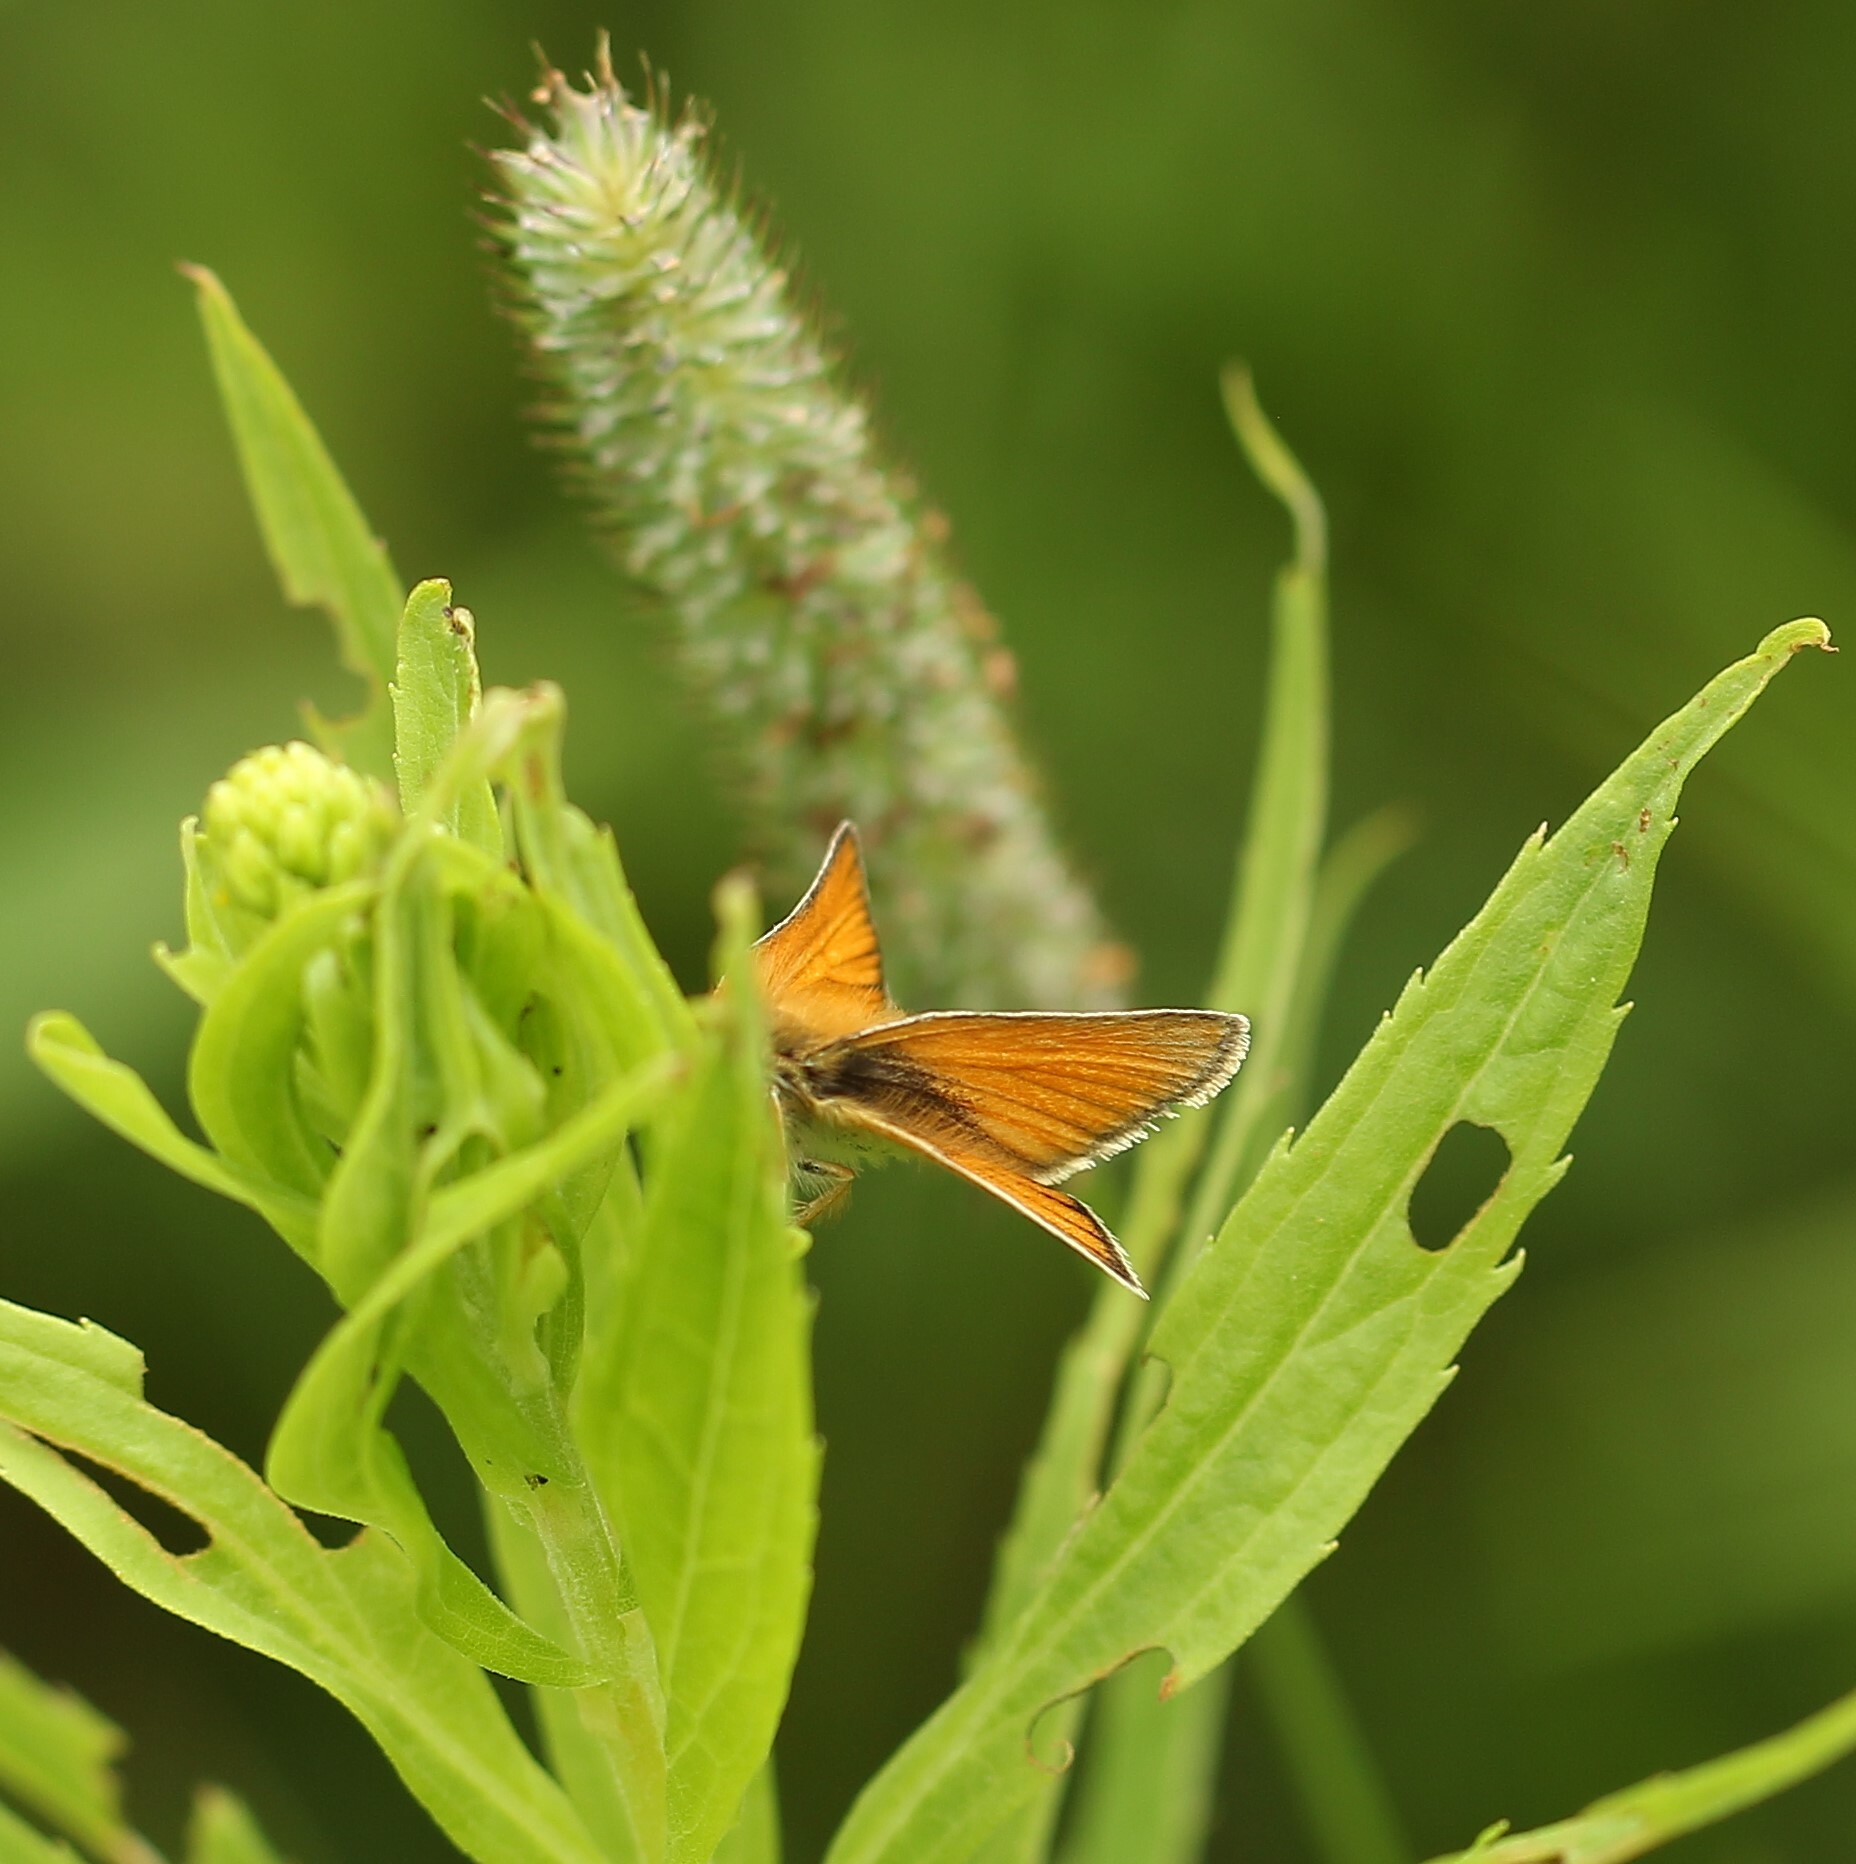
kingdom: Animalia
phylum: Arthropoda
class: Insecta
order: Lepidoptera
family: Hesperiidae
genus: Thymelicus
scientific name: Thymelicus lineola
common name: Essex skipper
